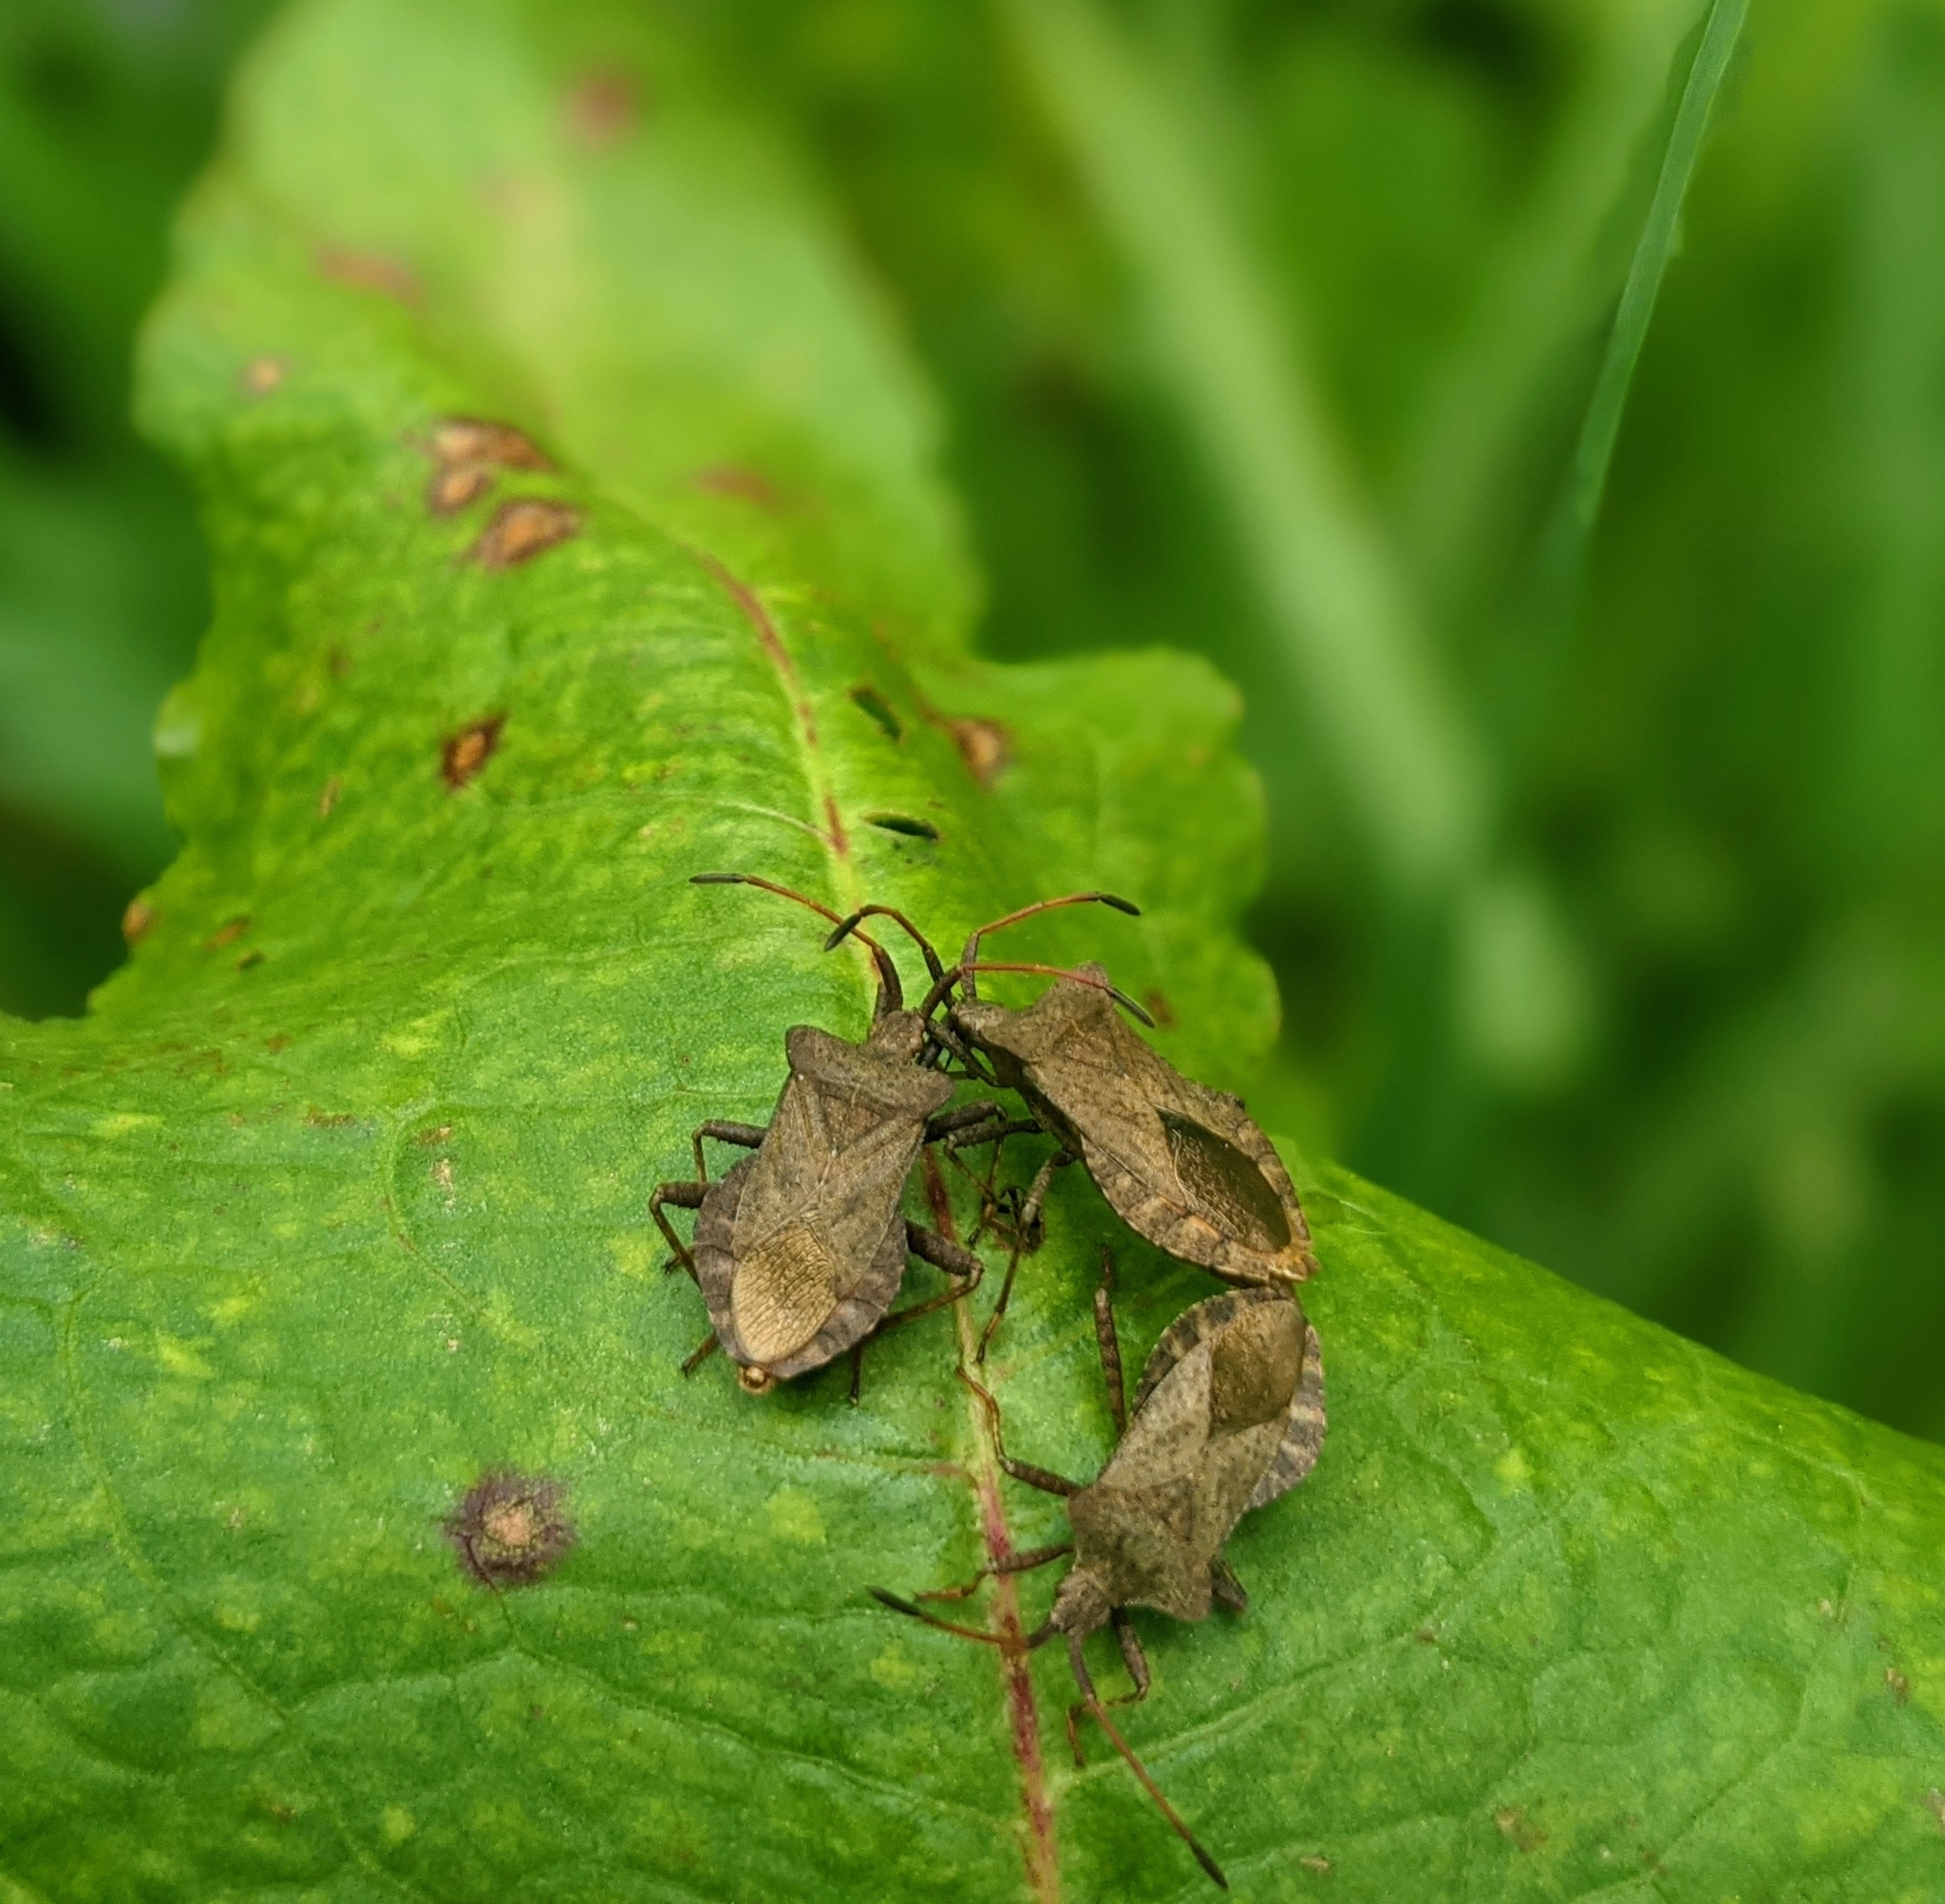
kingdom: Animalia
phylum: Arthropoda
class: Insecta
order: Hemiptera
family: Coreidae
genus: Coreus
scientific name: Coreus marginatus
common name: Dock bug
